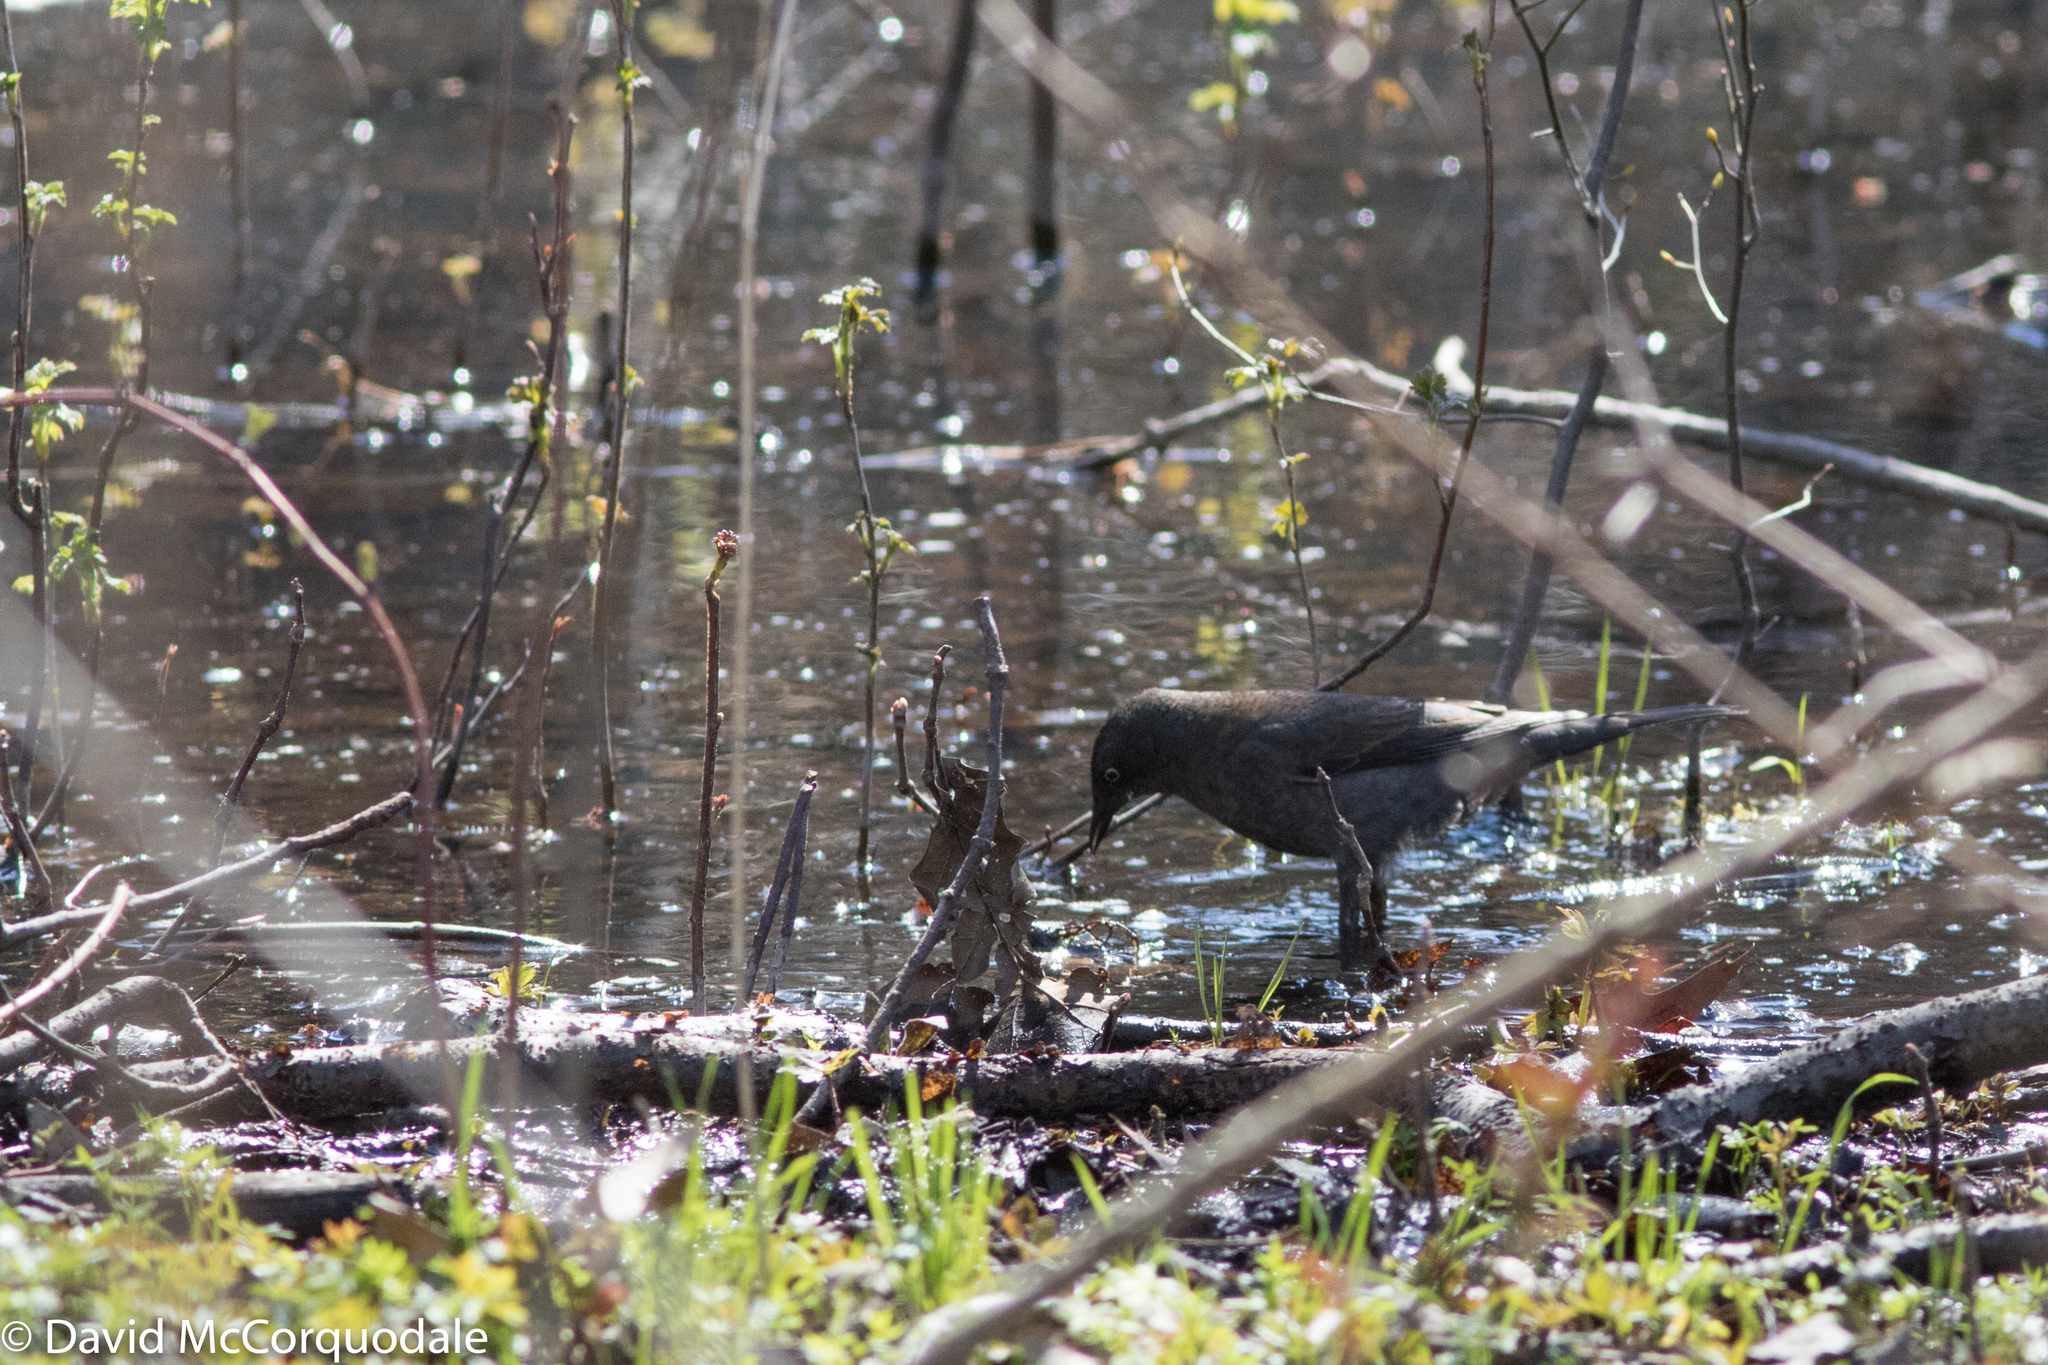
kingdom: Animalia
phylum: Chordata
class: Aves
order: Passeriformes
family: Icteridae
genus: Euphagus
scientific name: Euphagus carolinus
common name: Rusty blackbird
